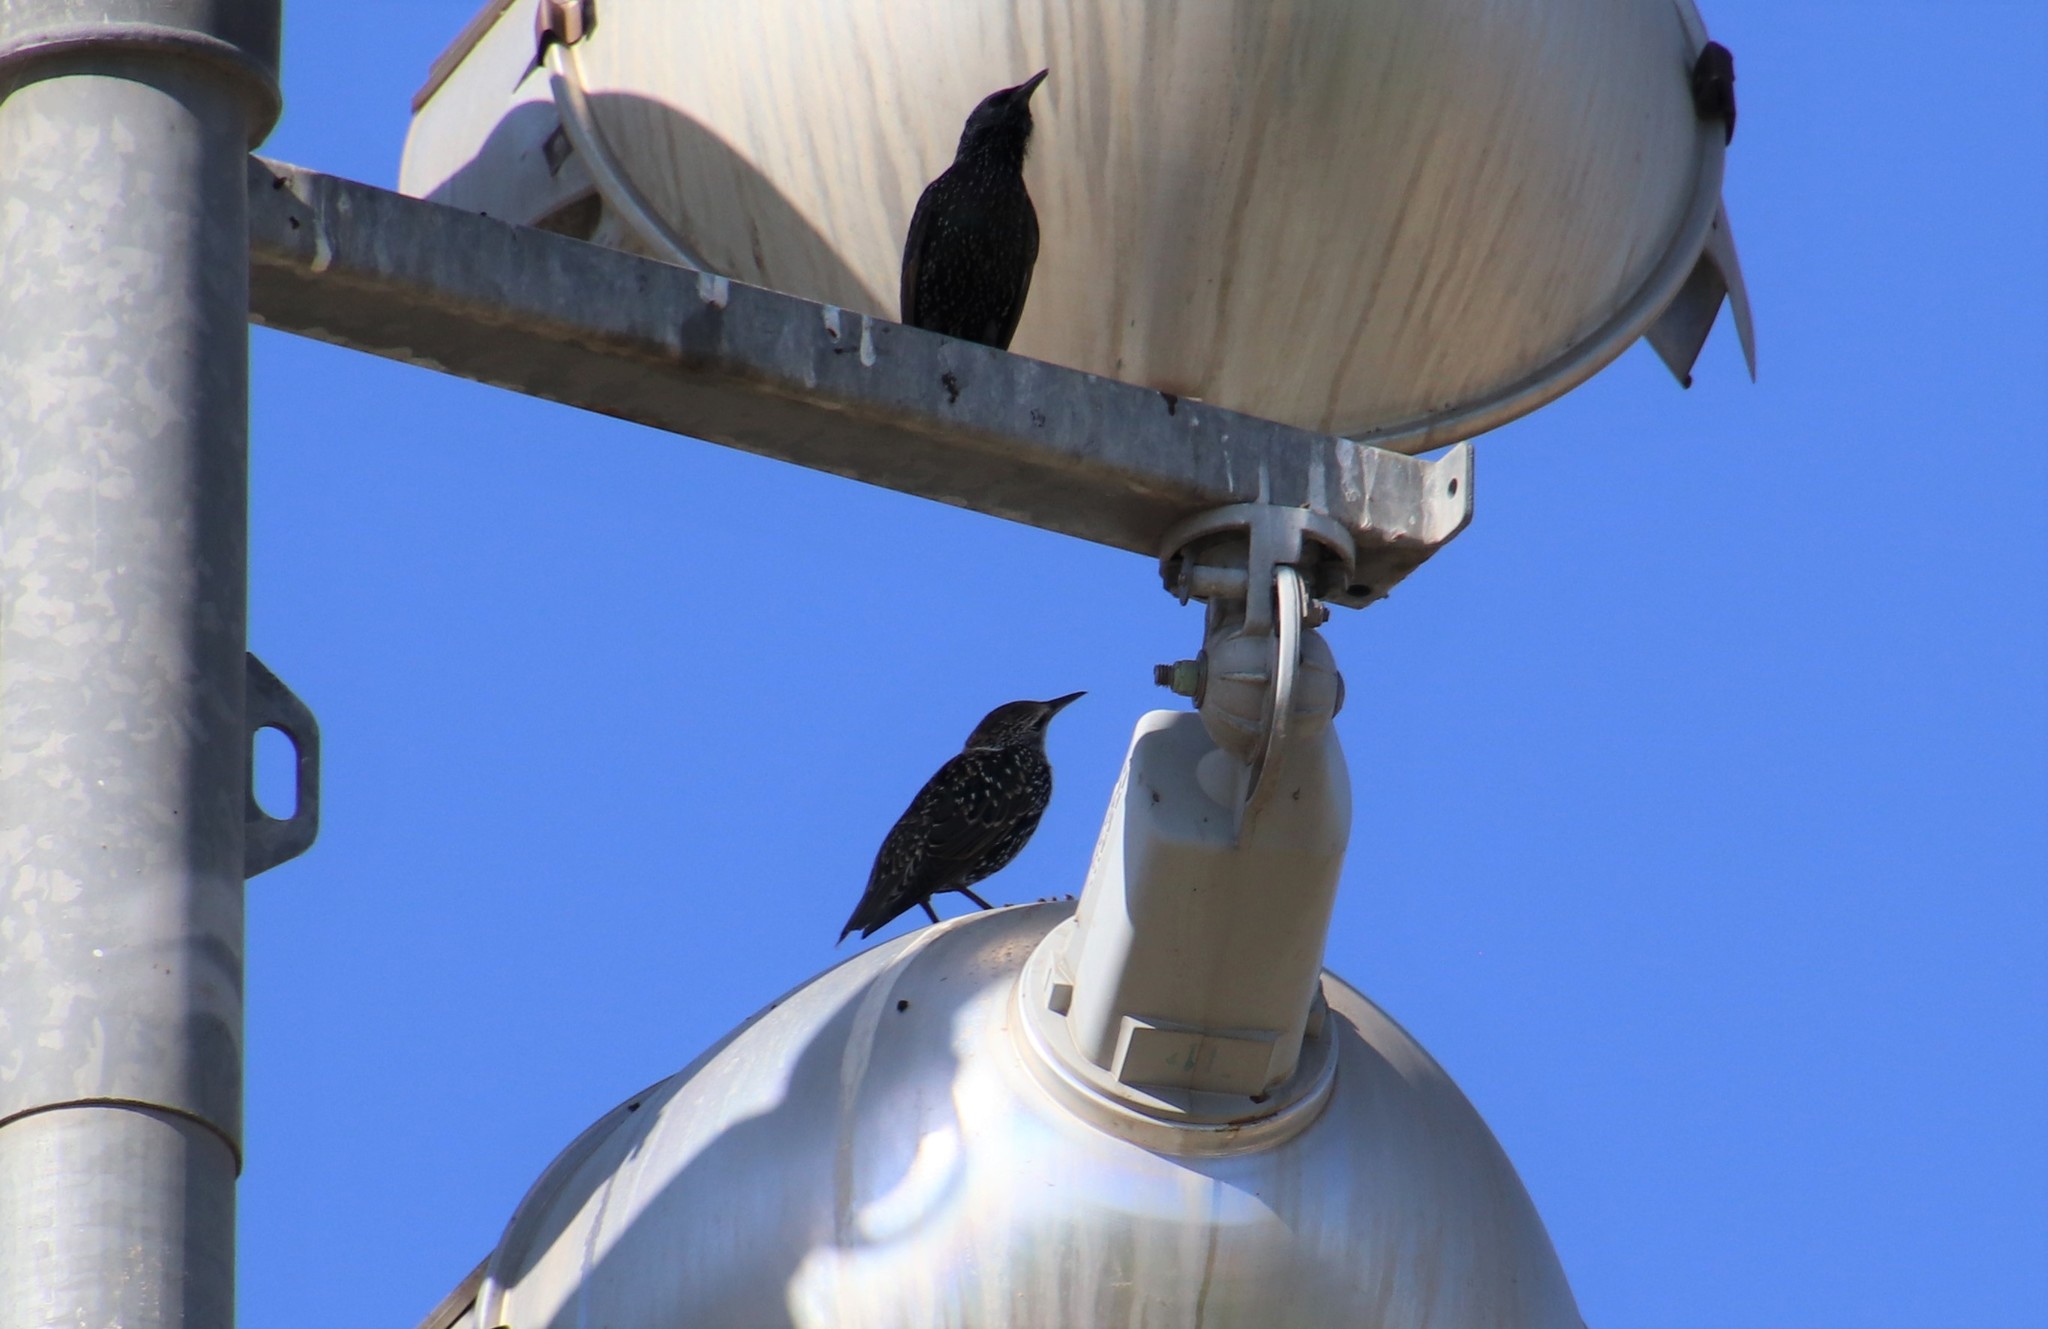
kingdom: Animalia
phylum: Chordata
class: Aves
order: Passeriformes
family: Sturnidae
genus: Sturnus
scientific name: Sturnus vulgaris
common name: Common starling
